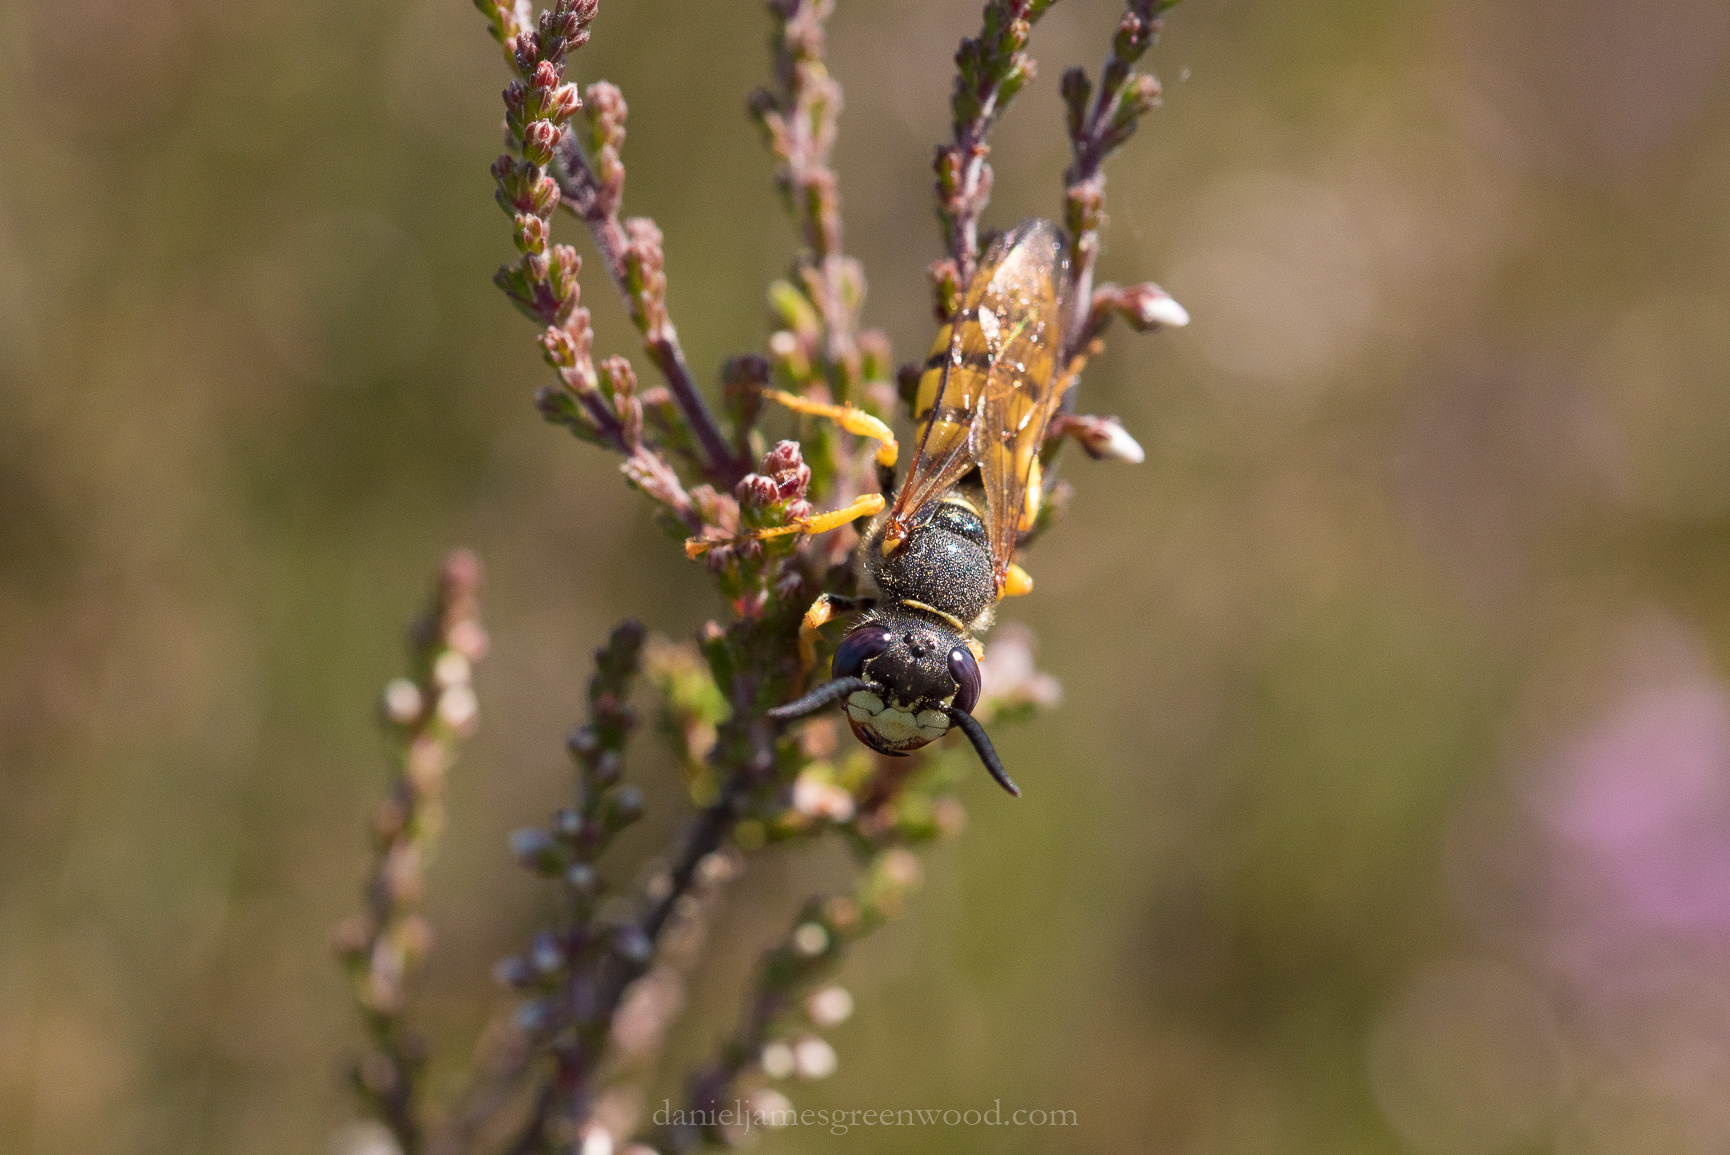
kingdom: Animalia
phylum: Arthropoda
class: Insecta
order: Hymenoptera
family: Crabronidae
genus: Philanthus
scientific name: Philanthus triangulum
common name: Bee wolf
